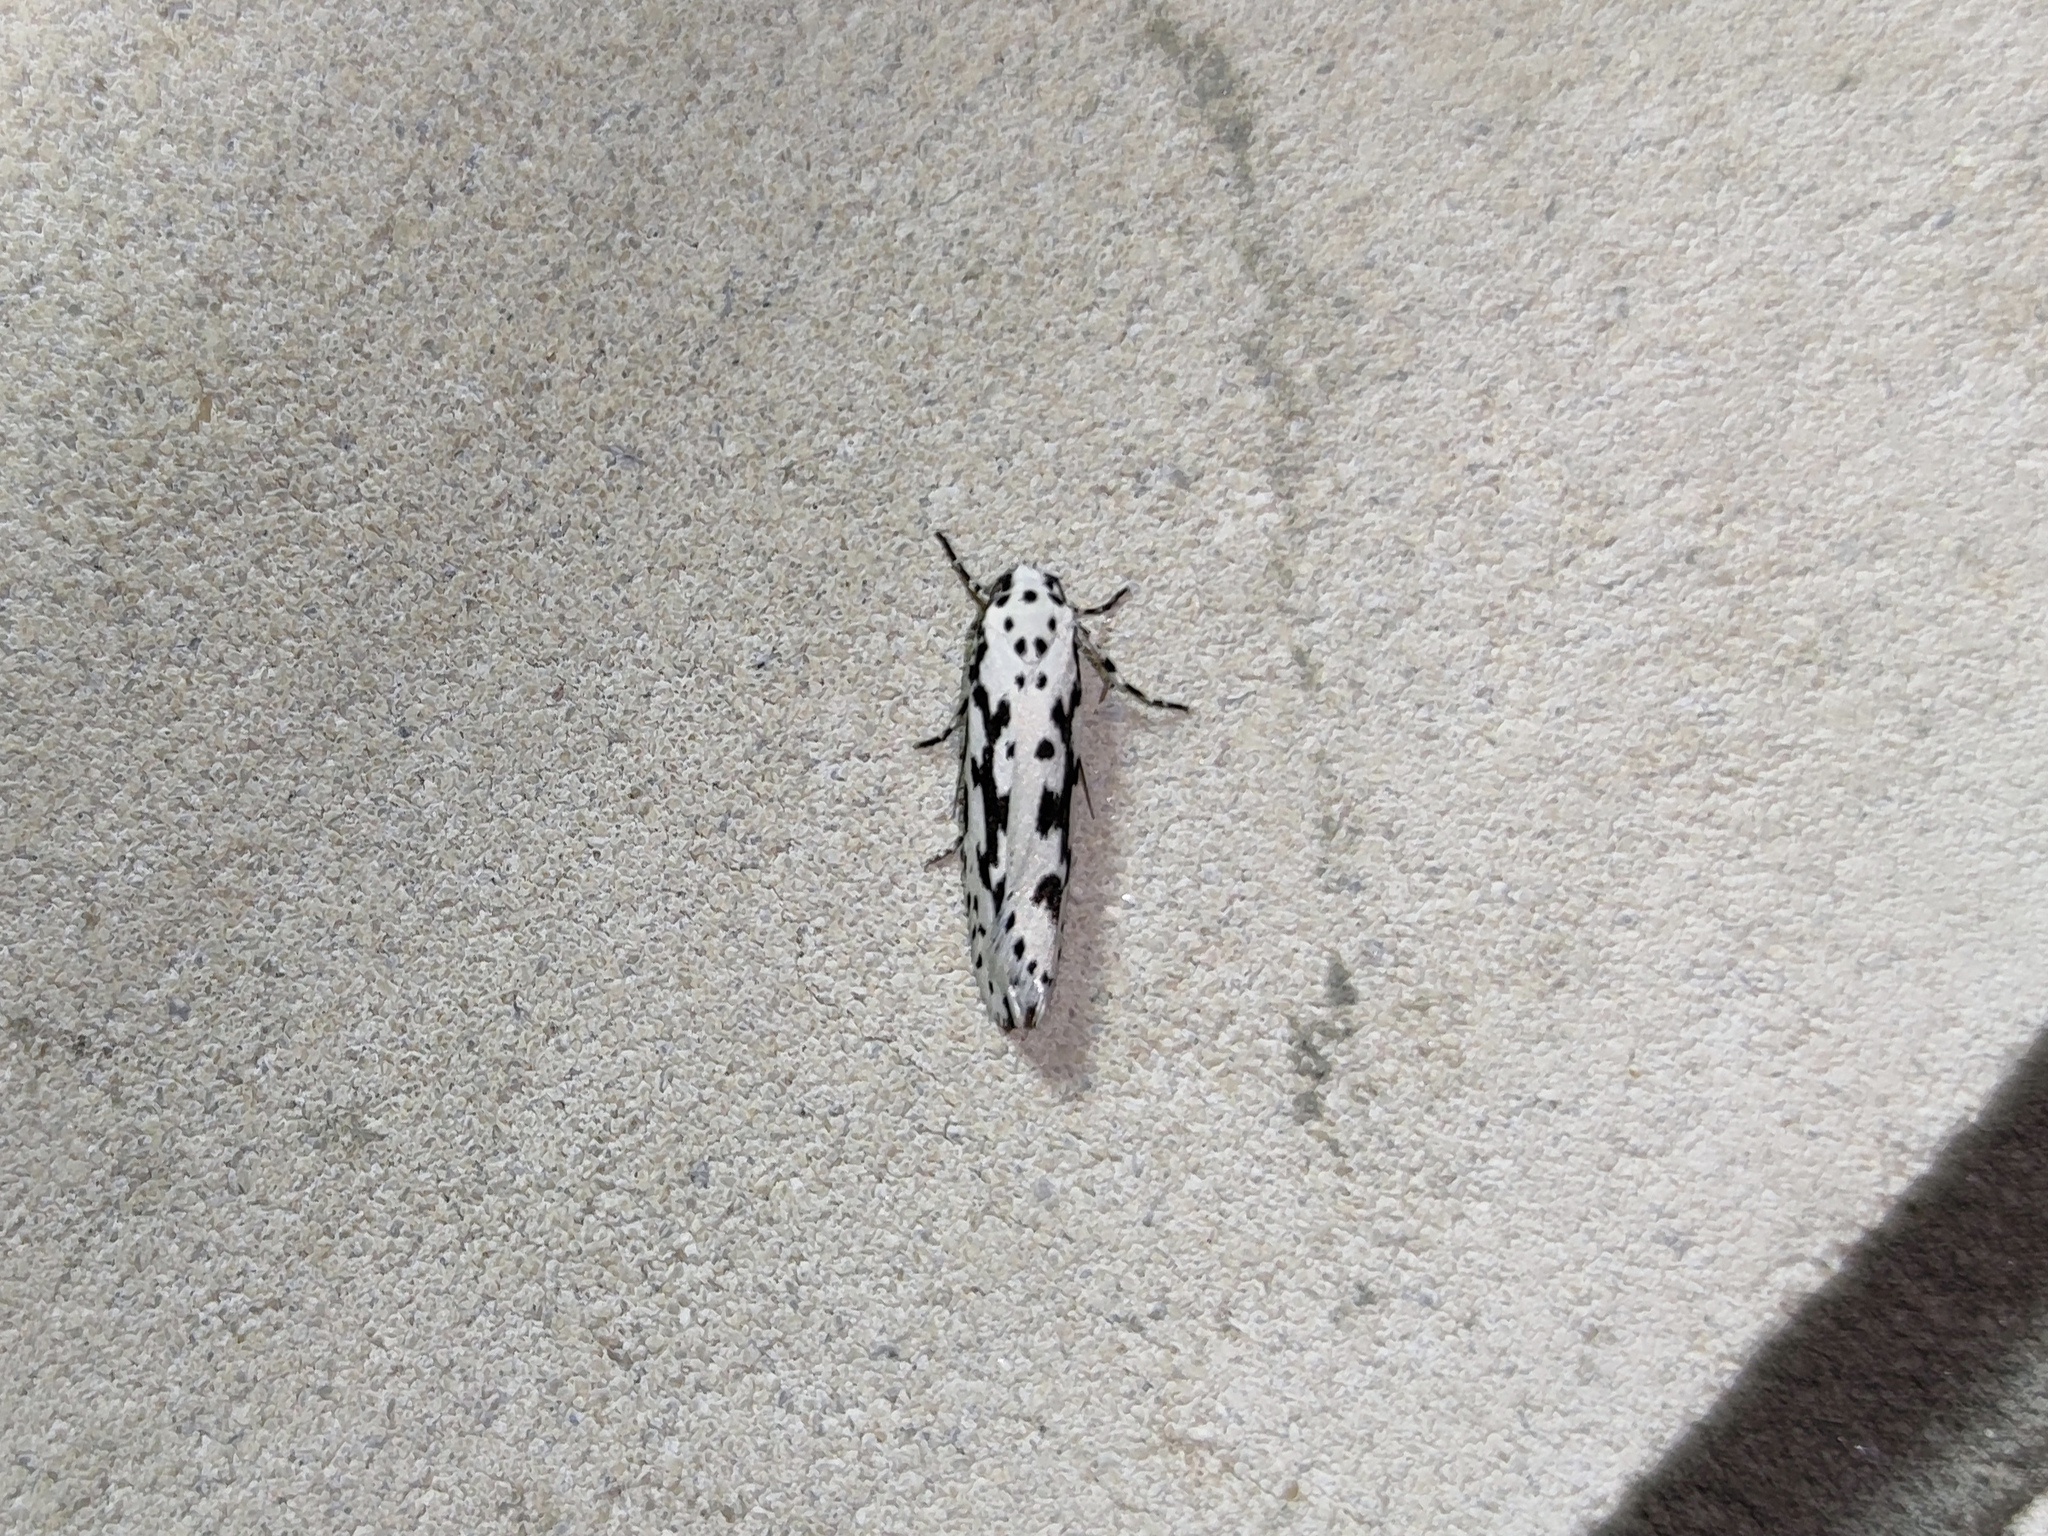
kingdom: Animalia
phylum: Arthropoda
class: Insecta
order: Lepidoptera
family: Ethmiidae
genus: Ethmia
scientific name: Ethmia pusiella
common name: Striped ermel
